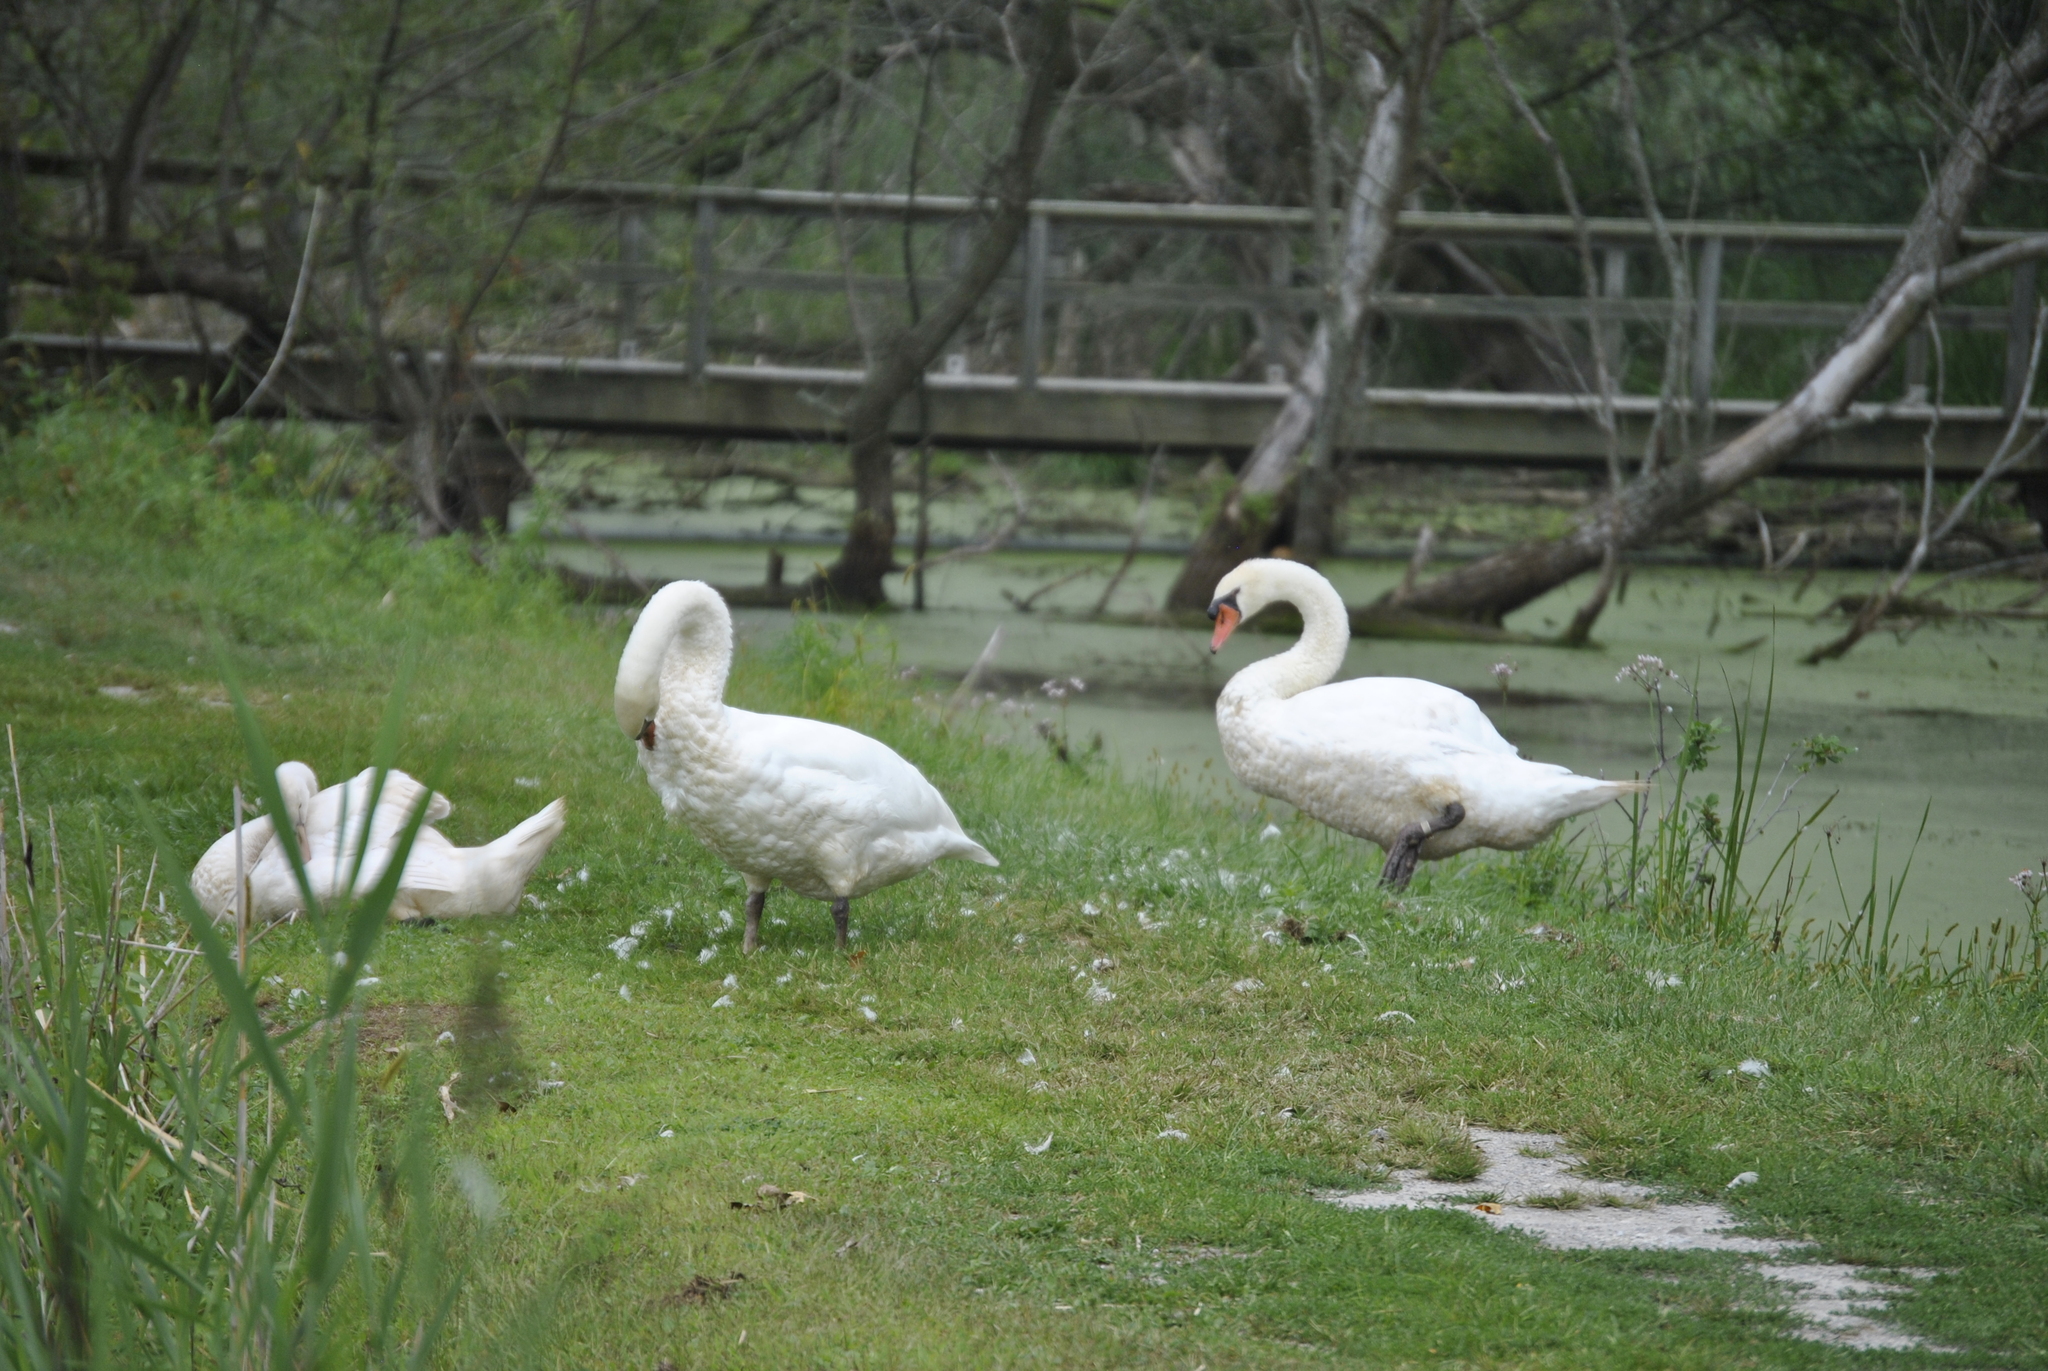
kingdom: Animalia
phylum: Chordata
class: Aves
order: Anseriformes
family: Anatidae
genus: Cygnus
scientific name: Cygnus olor
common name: Mute swan
